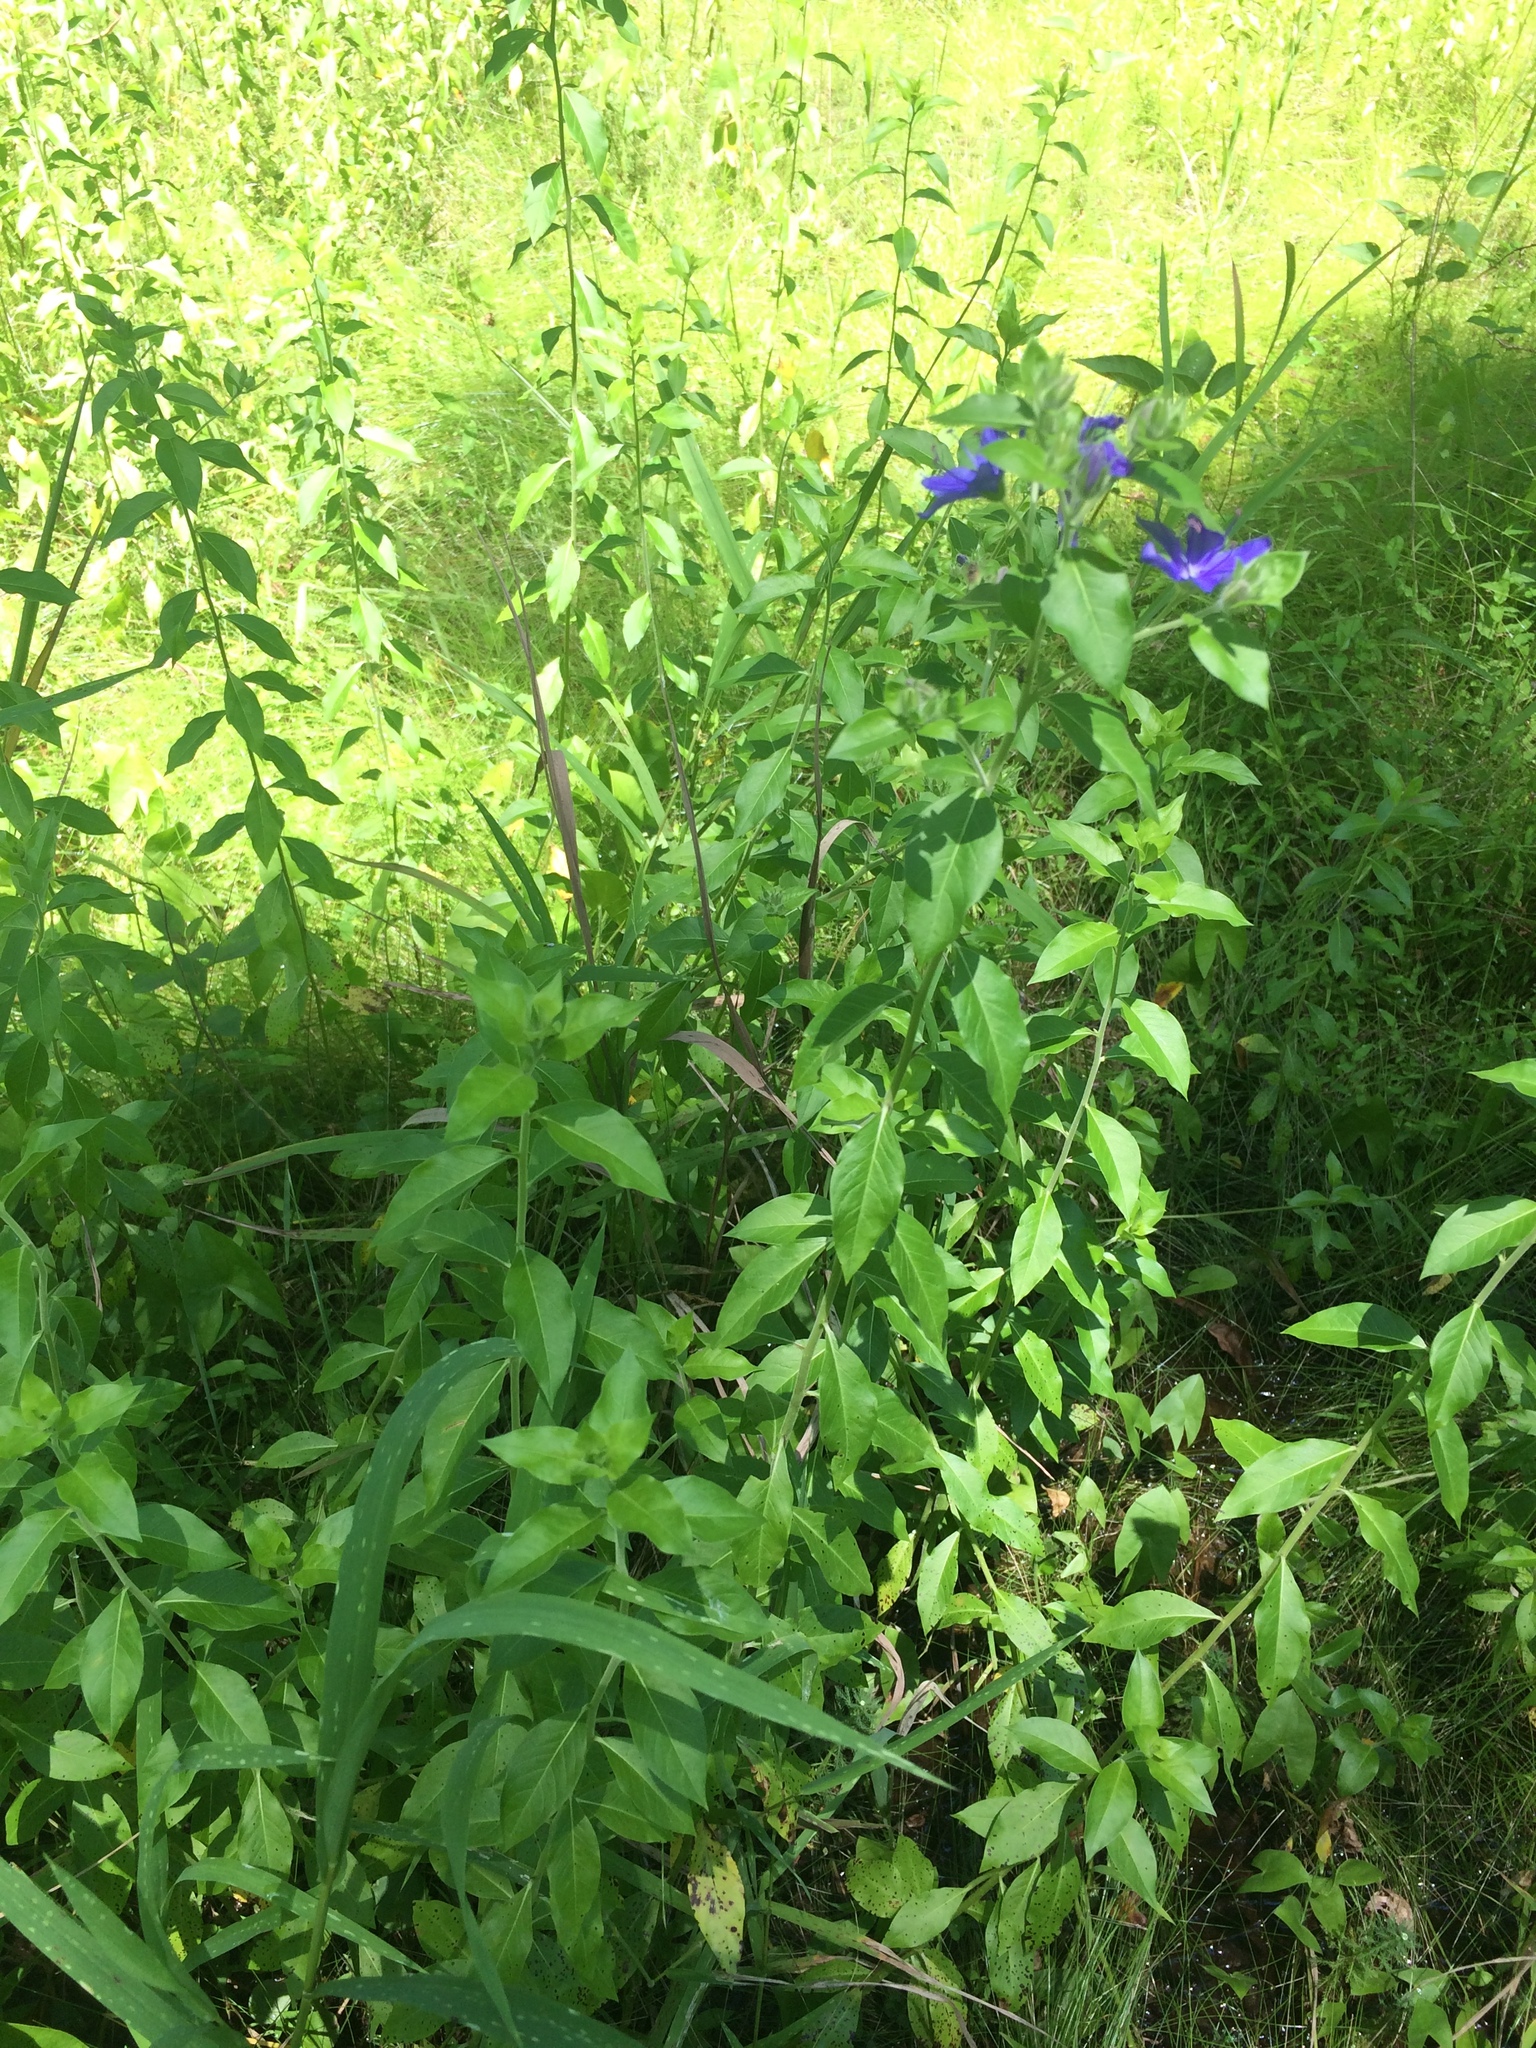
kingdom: Plantae
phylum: Tracheophyta
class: Magnoliopsida
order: Solanales
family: Hydroleaceae
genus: Hydrolea
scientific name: Hydrolea ovata
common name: Ovate false fiddleleaf
